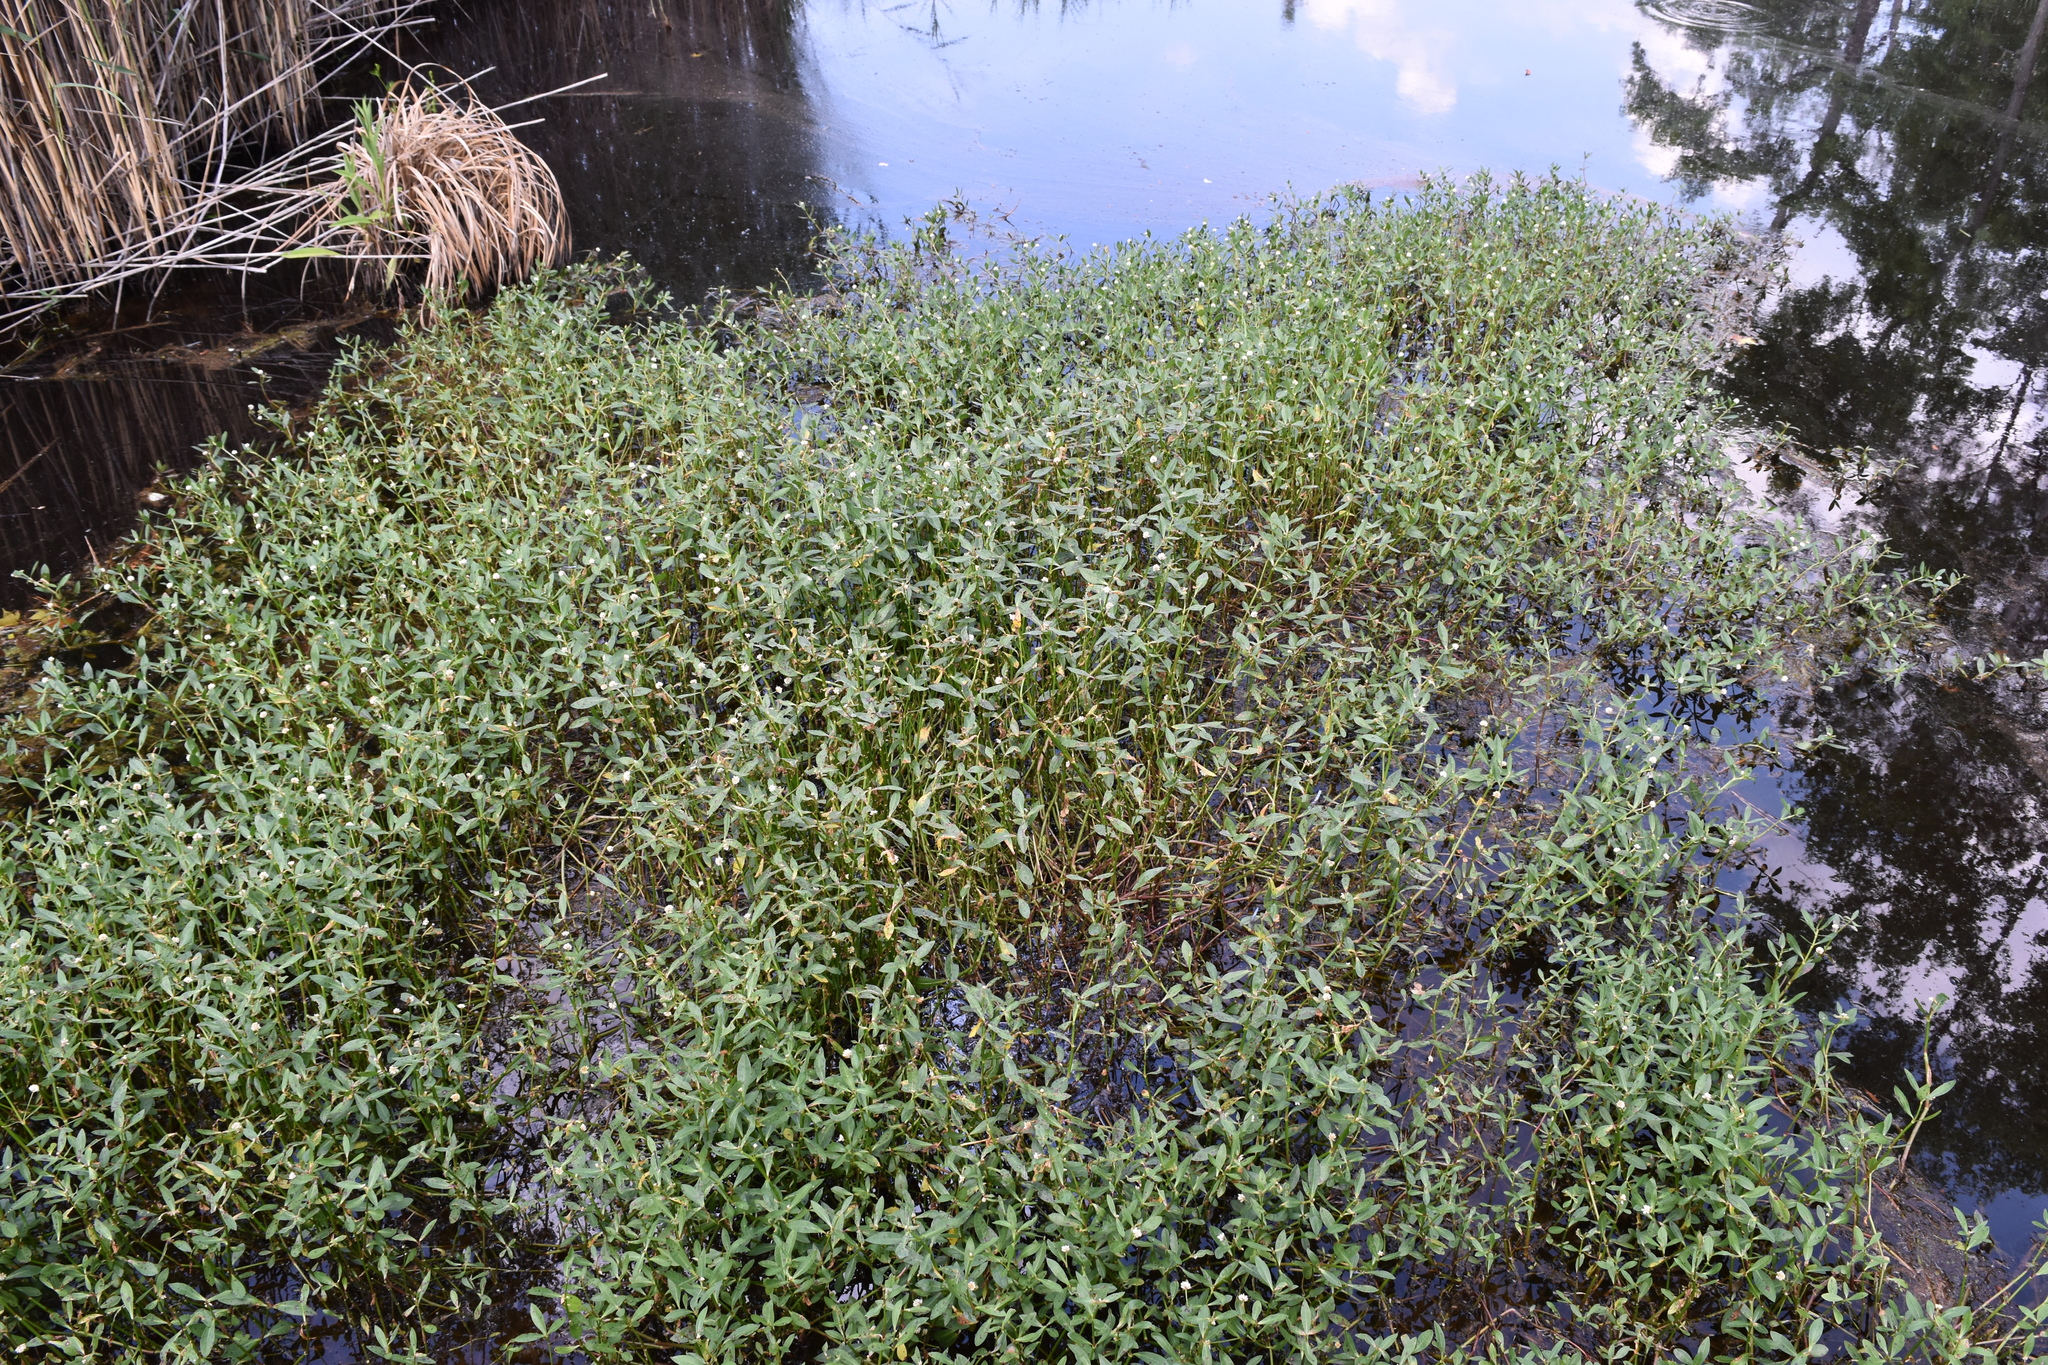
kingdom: Plantae
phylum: Tracheophyta
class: Magnoliopsida
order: Caryophyllales
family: Amaranthaceae
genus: Alternanthera
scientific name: Alternanthera philoxeroides
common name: Alligatorweed
